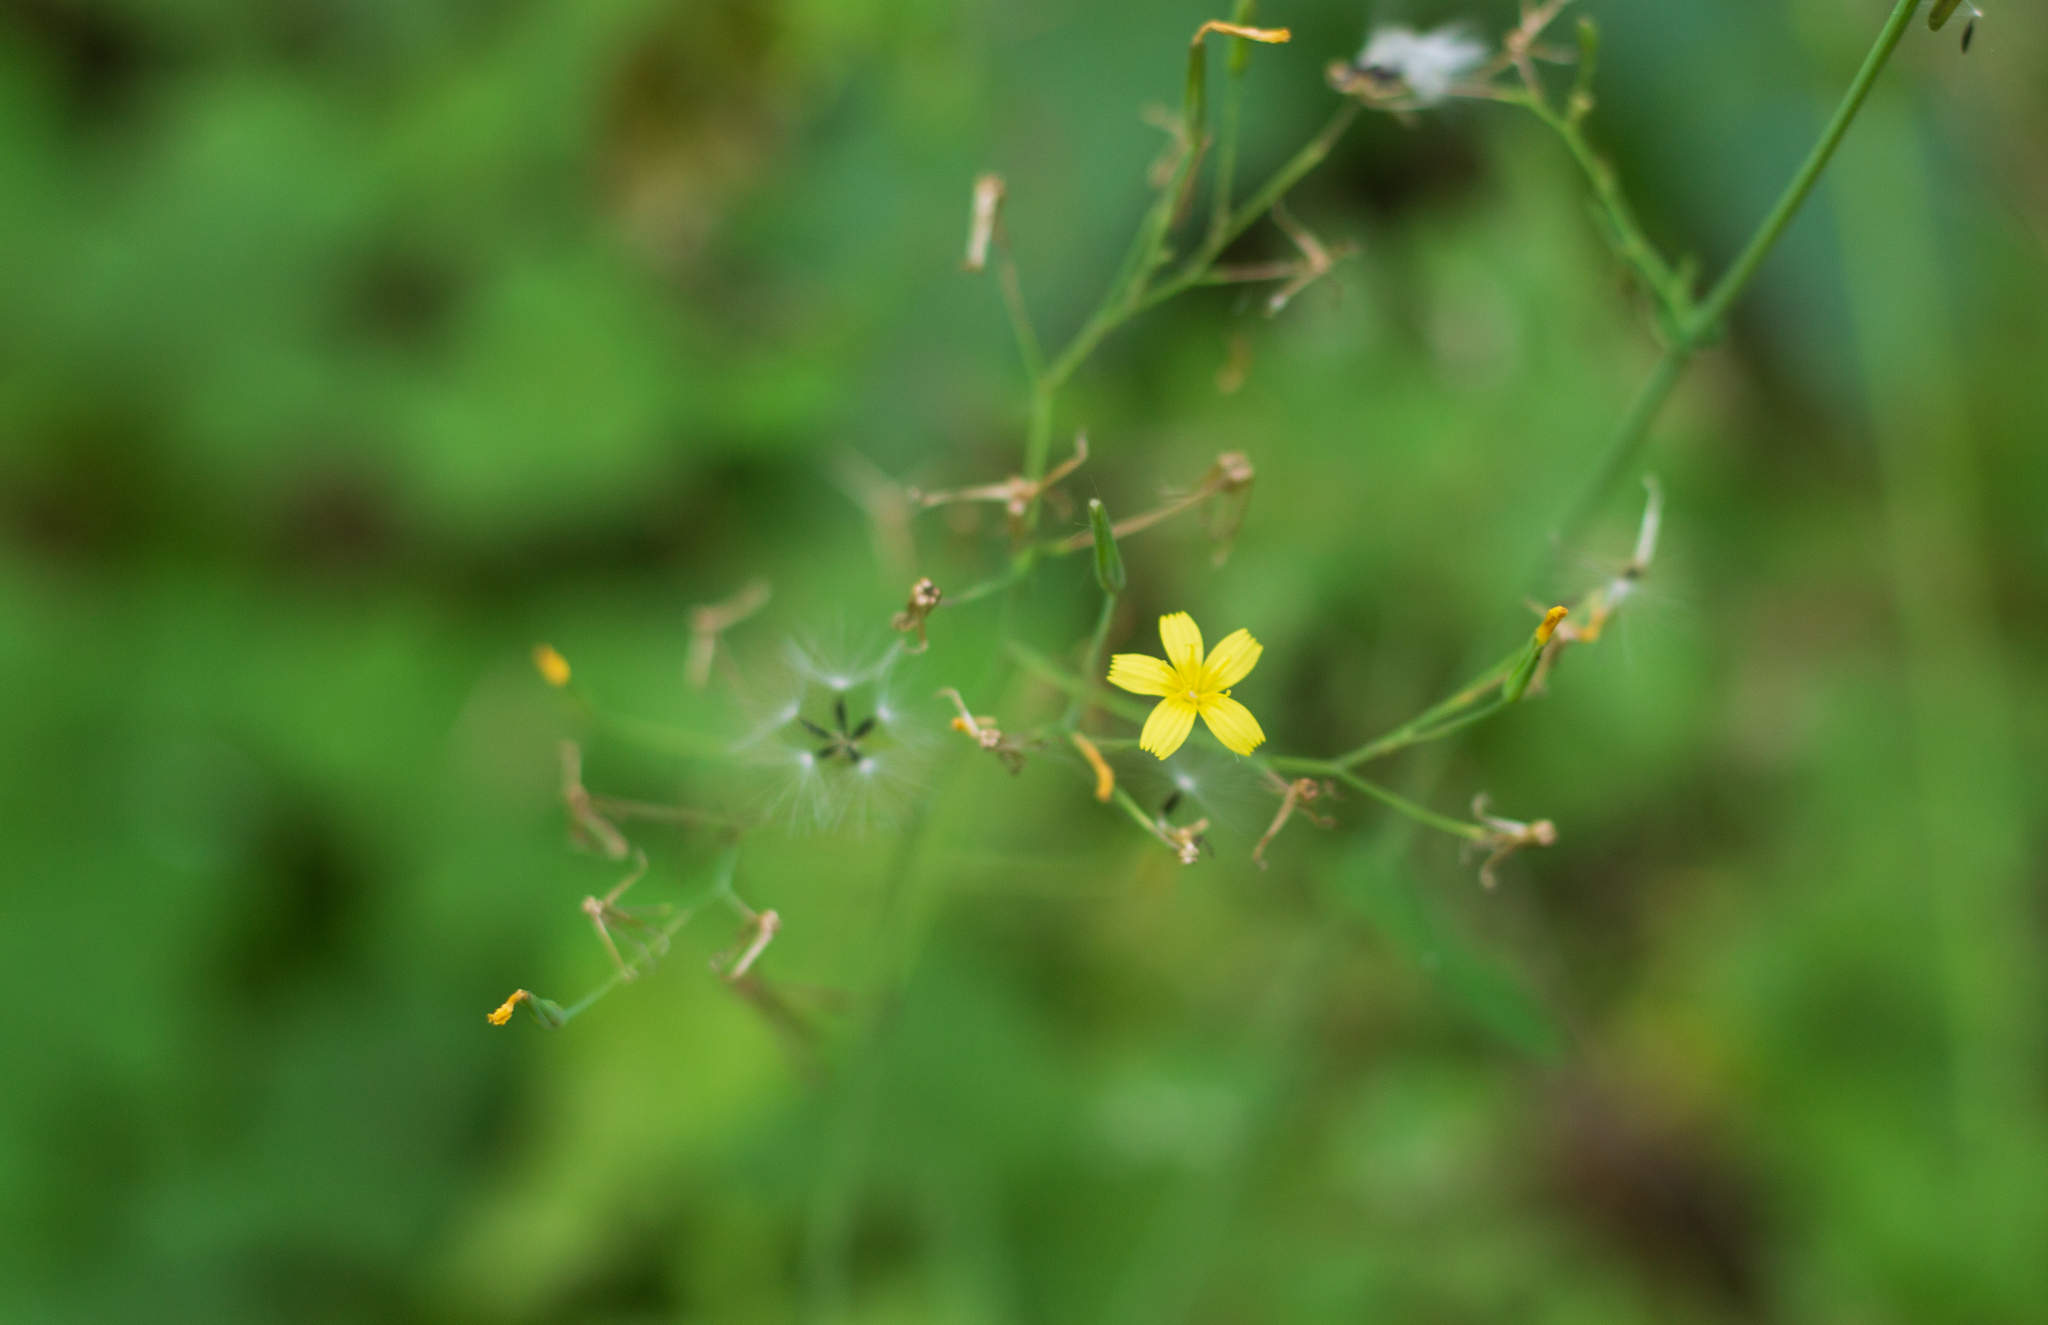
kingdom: Plantae
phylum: Tracheophyta
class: Magnoliopsida
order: Asterales
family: Asteraceae
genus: Mycelis
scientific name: Mycelis muralis
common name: Wall lettuce
